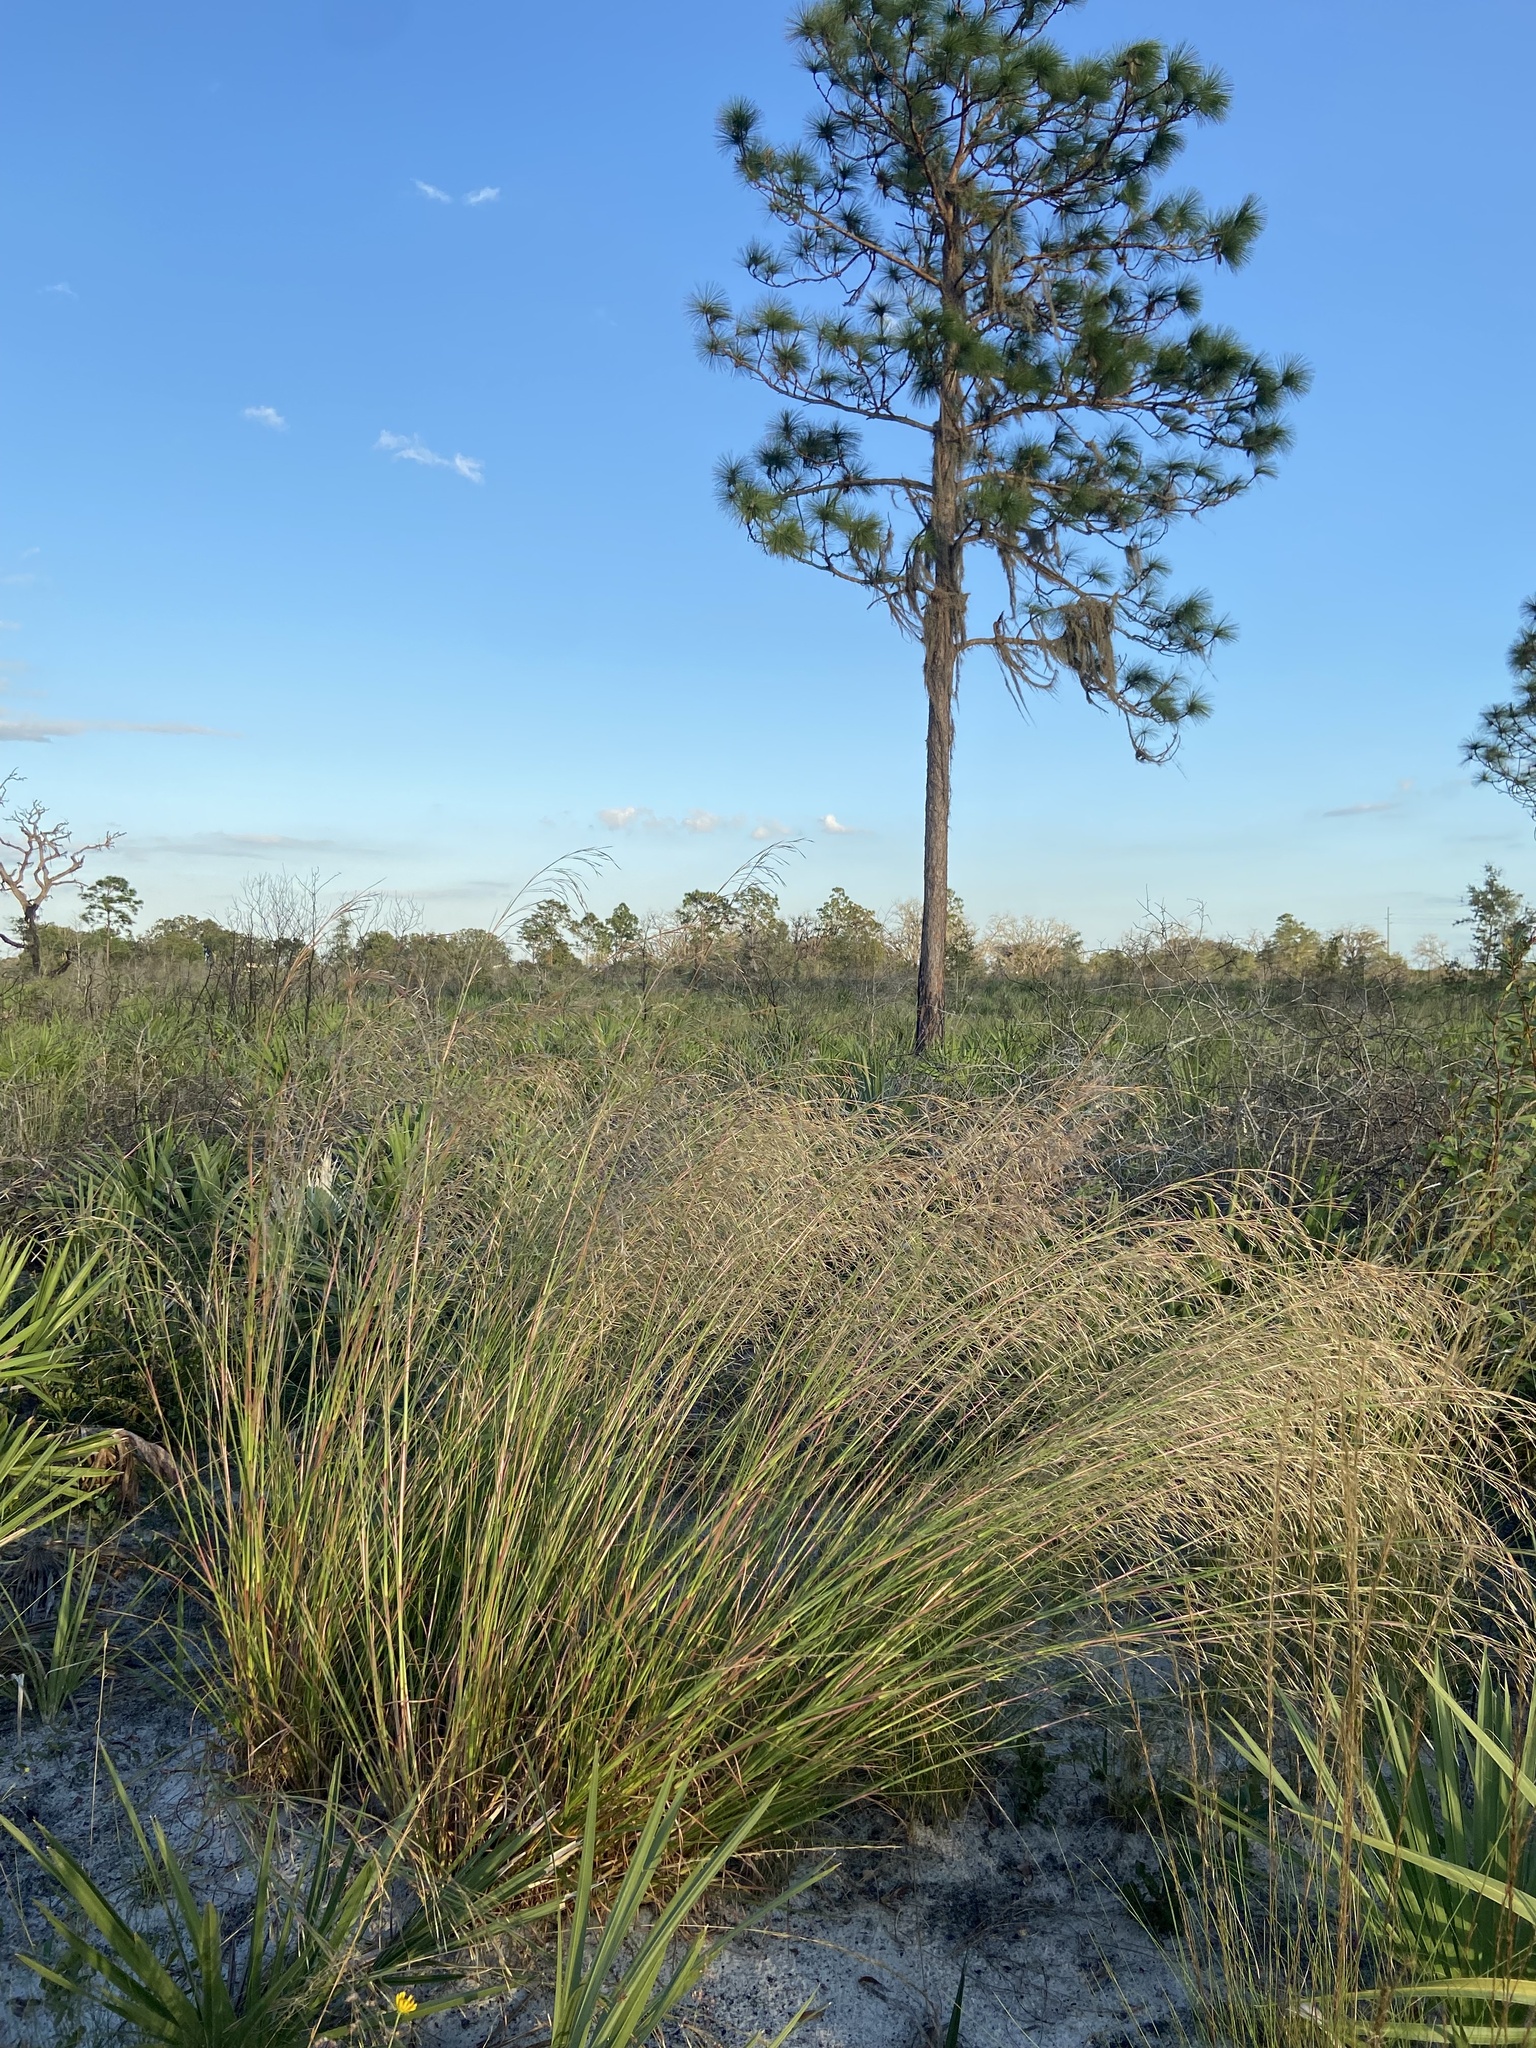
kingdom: Plantae
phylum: Tracheophyta
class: Liliopsida
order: Poales
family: Poaceae
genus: Andropogon
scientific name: Andropogon brachystachyus
